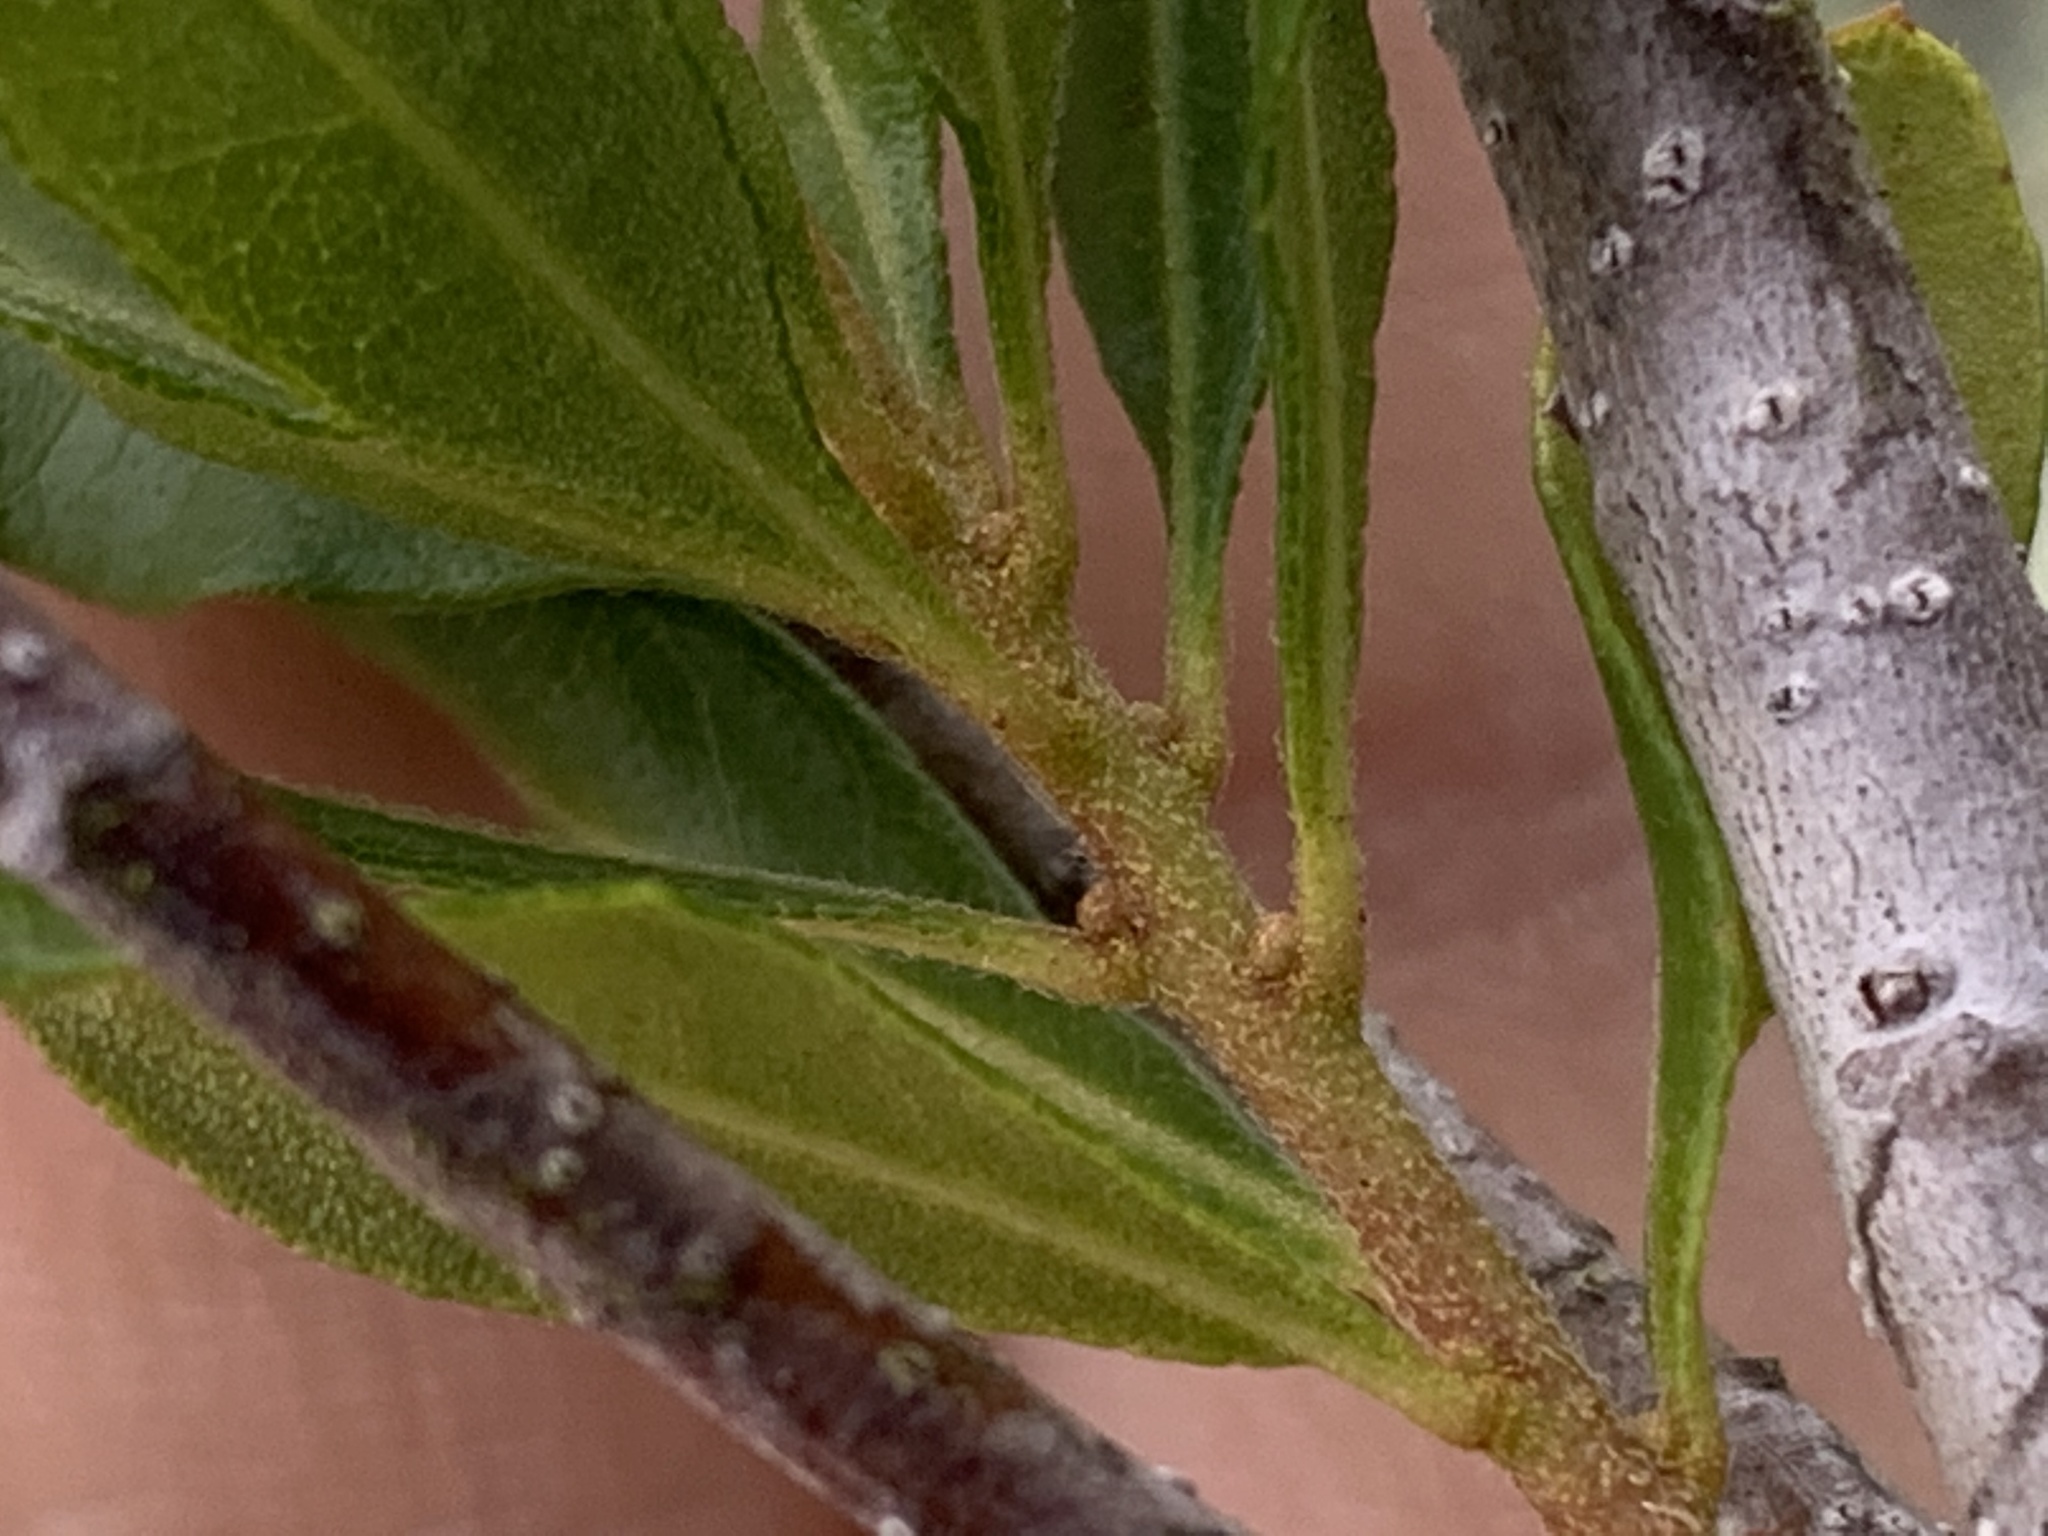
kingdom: Plantae
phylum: Tracheophyta
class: Magnoliopsida
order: Fagales
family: Myricaceae
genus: Morella
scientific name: Morella cerifera
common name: Wax myrtle
